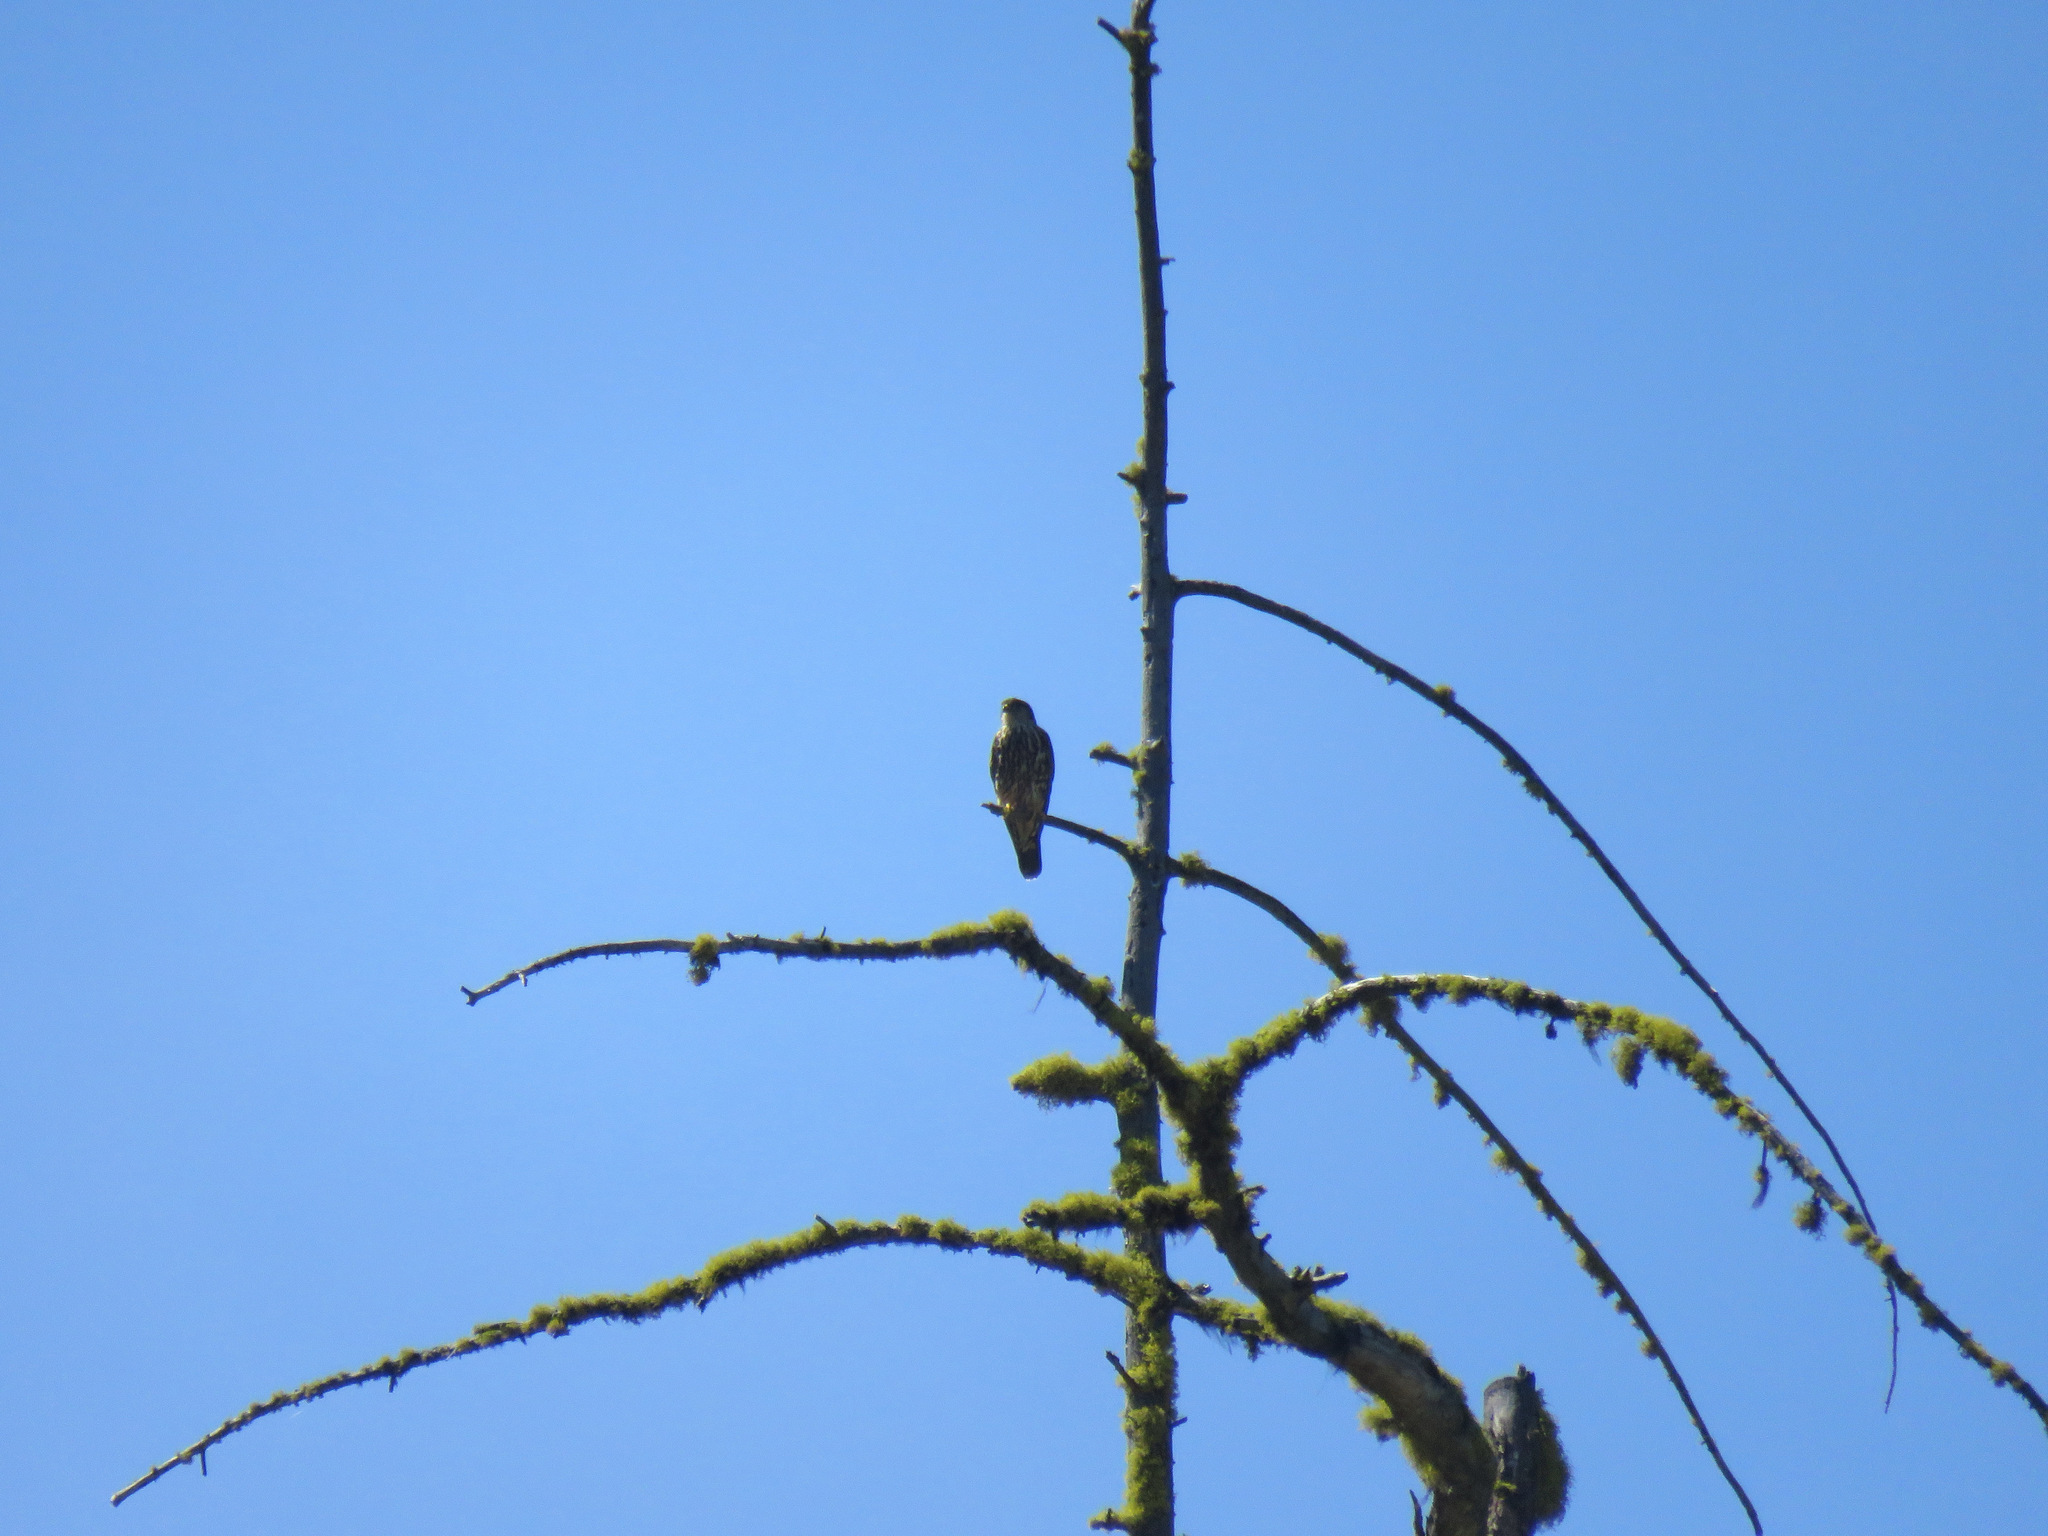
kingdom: Animalia
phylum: Chordata
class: Aves
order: Falconiformes
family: Falconidae
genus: Falco
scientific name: Falco columbarius
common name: Merlin
